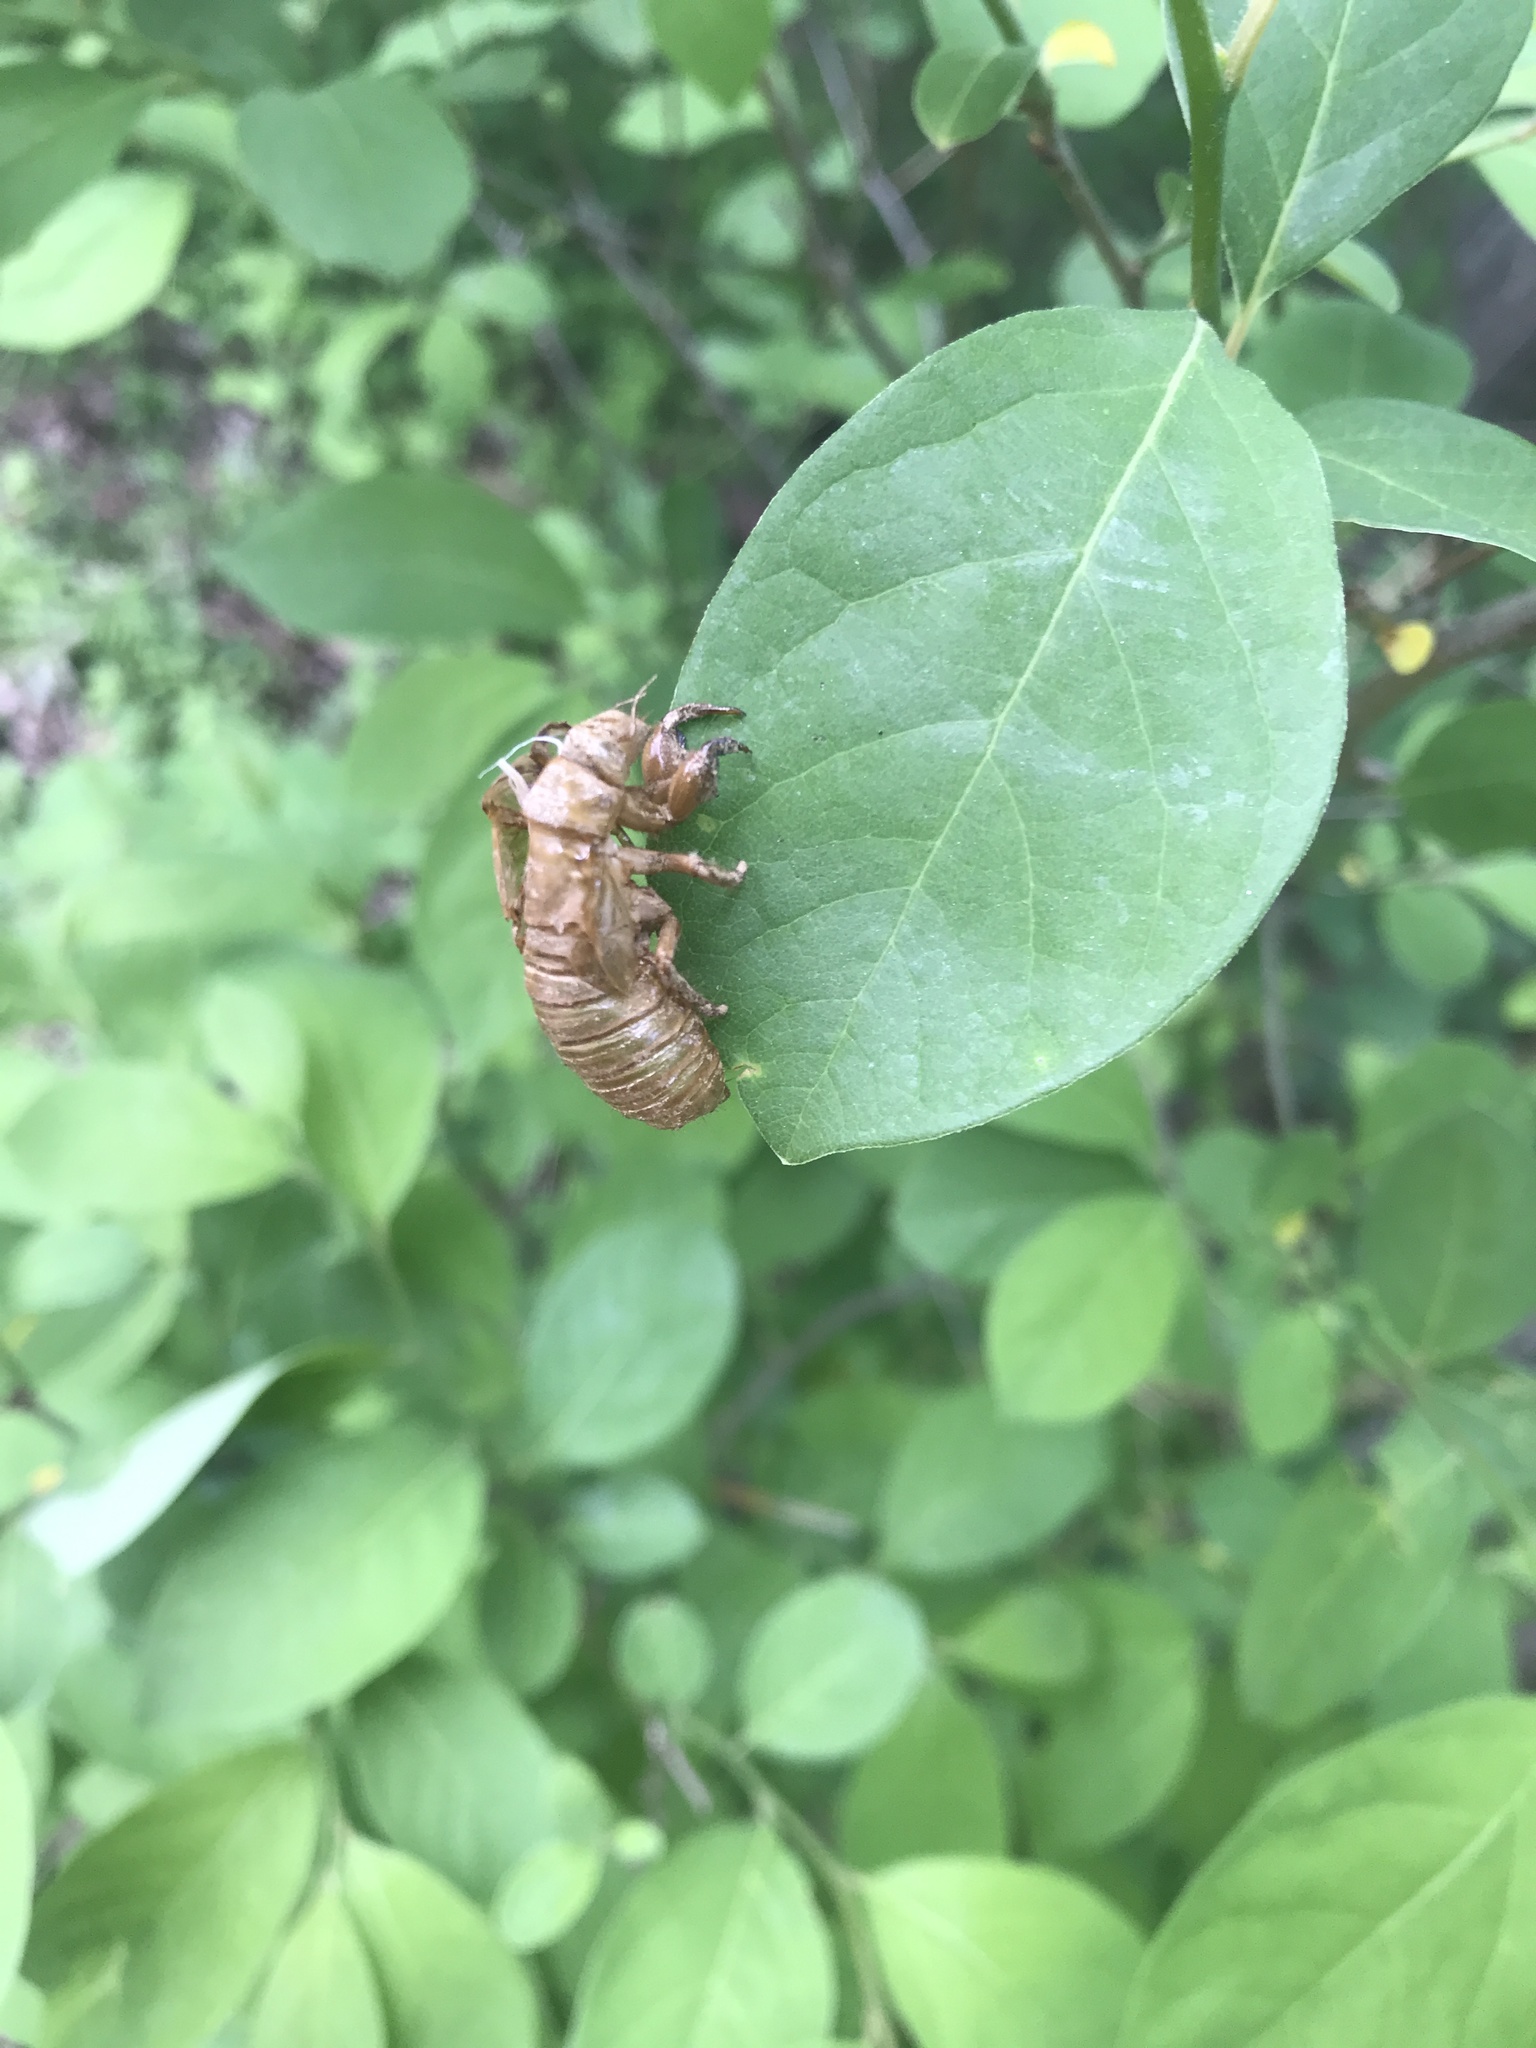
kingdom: Animalia
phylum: Arthropoda
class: Insecta
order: Hemiptera
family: Cicadidae
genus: Magicicada
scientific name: Magicicada
